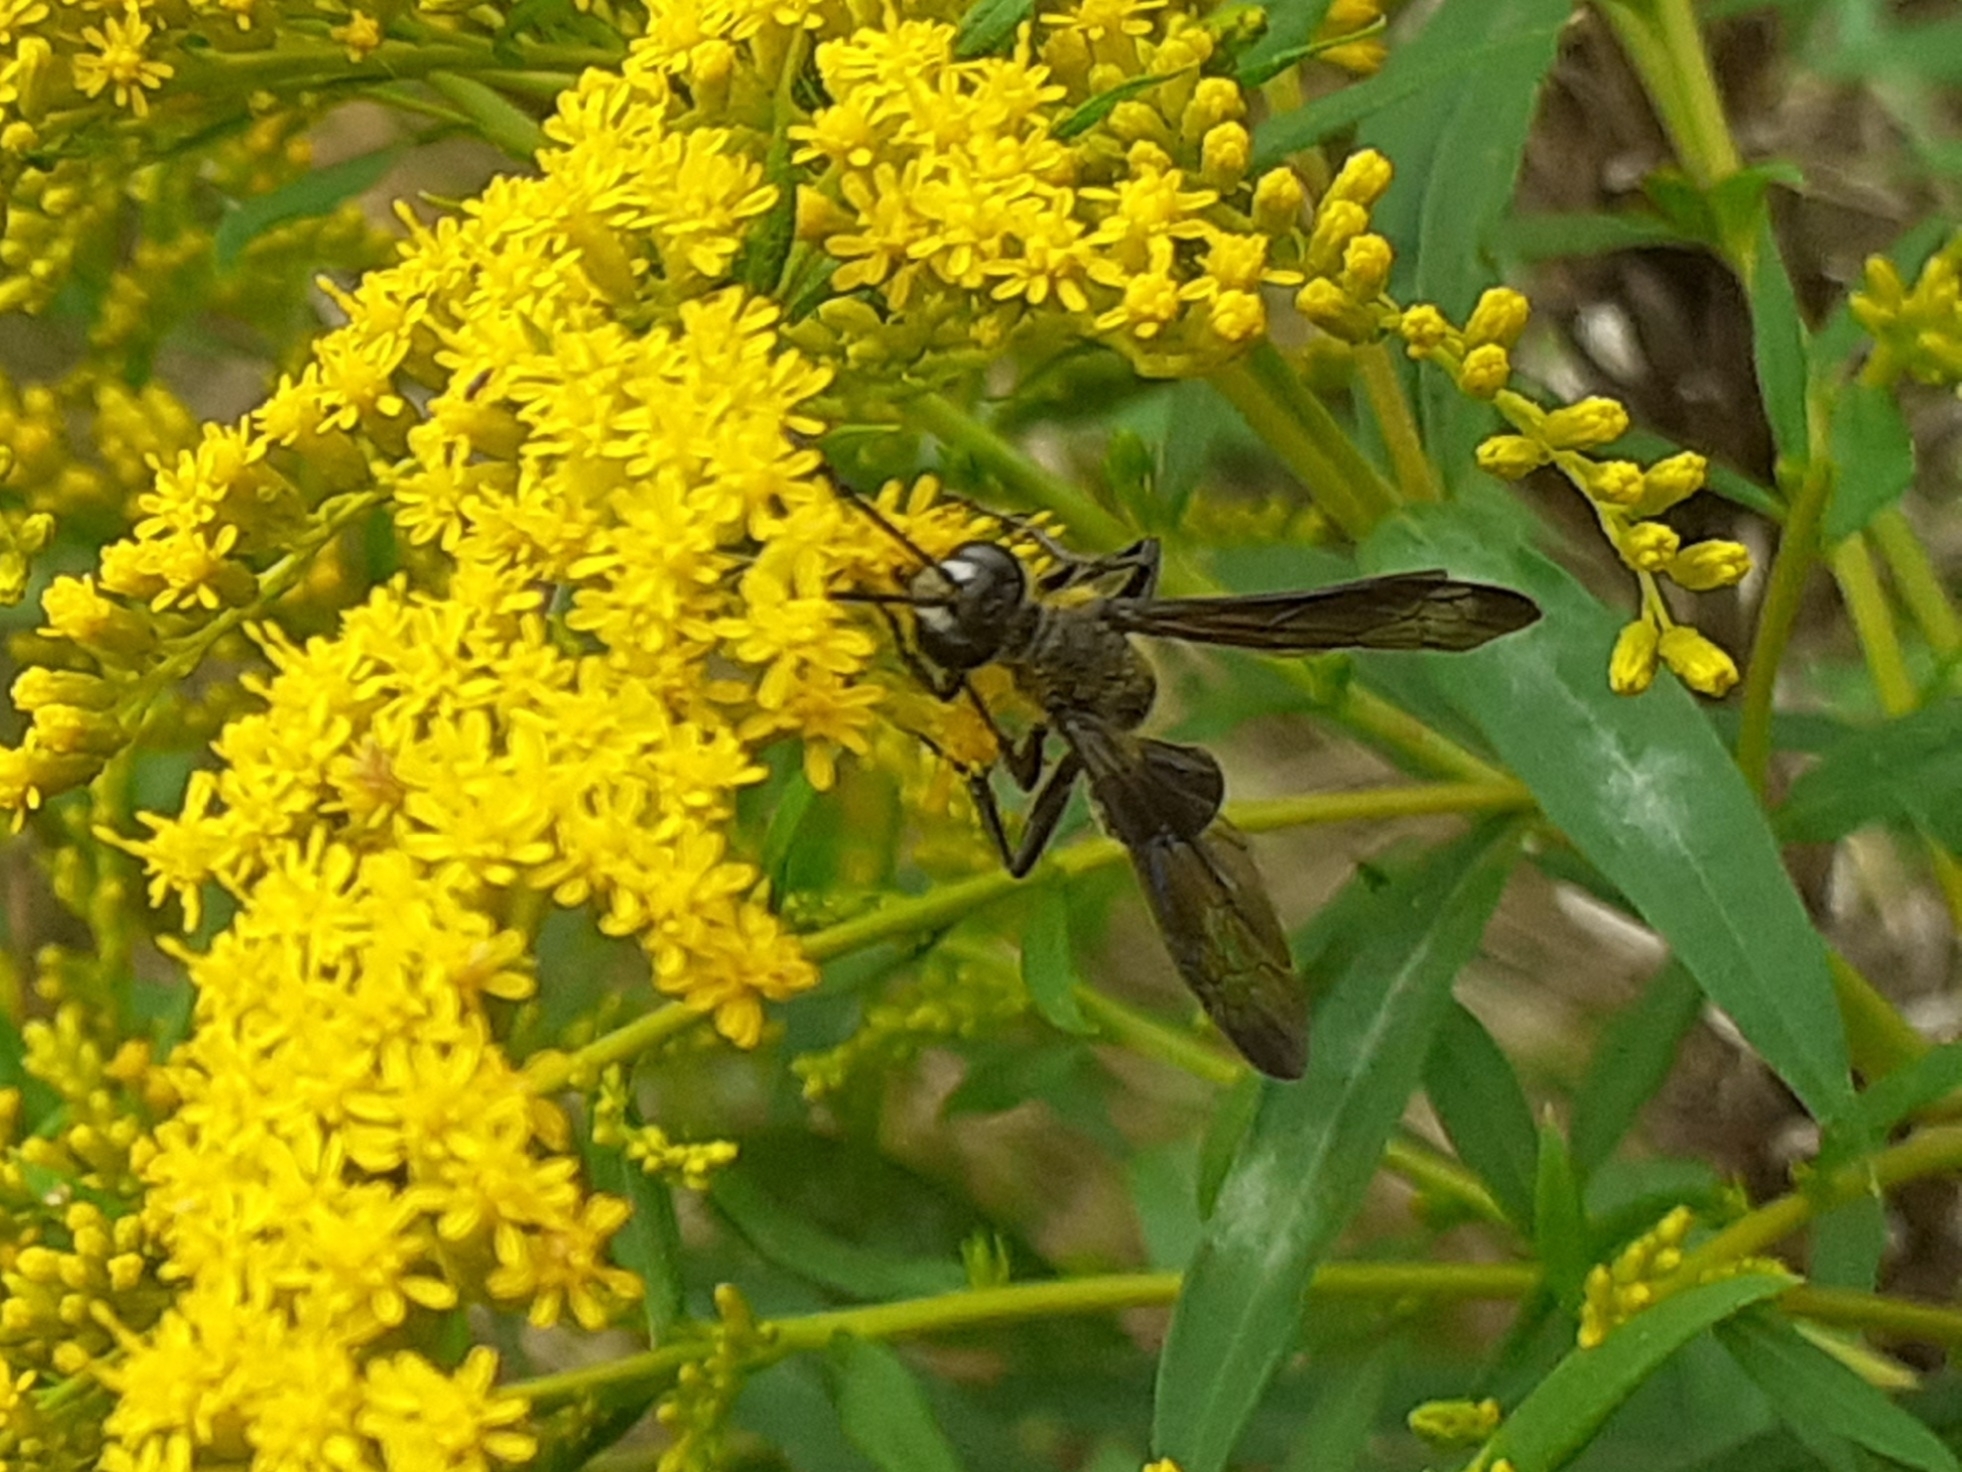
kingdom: Animalia
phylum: Arthropoda
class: Insecta
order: Hymenoptera
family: Sphecidae
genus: Isodontia
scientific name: Isodontia mexicana
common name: Mud dauber
